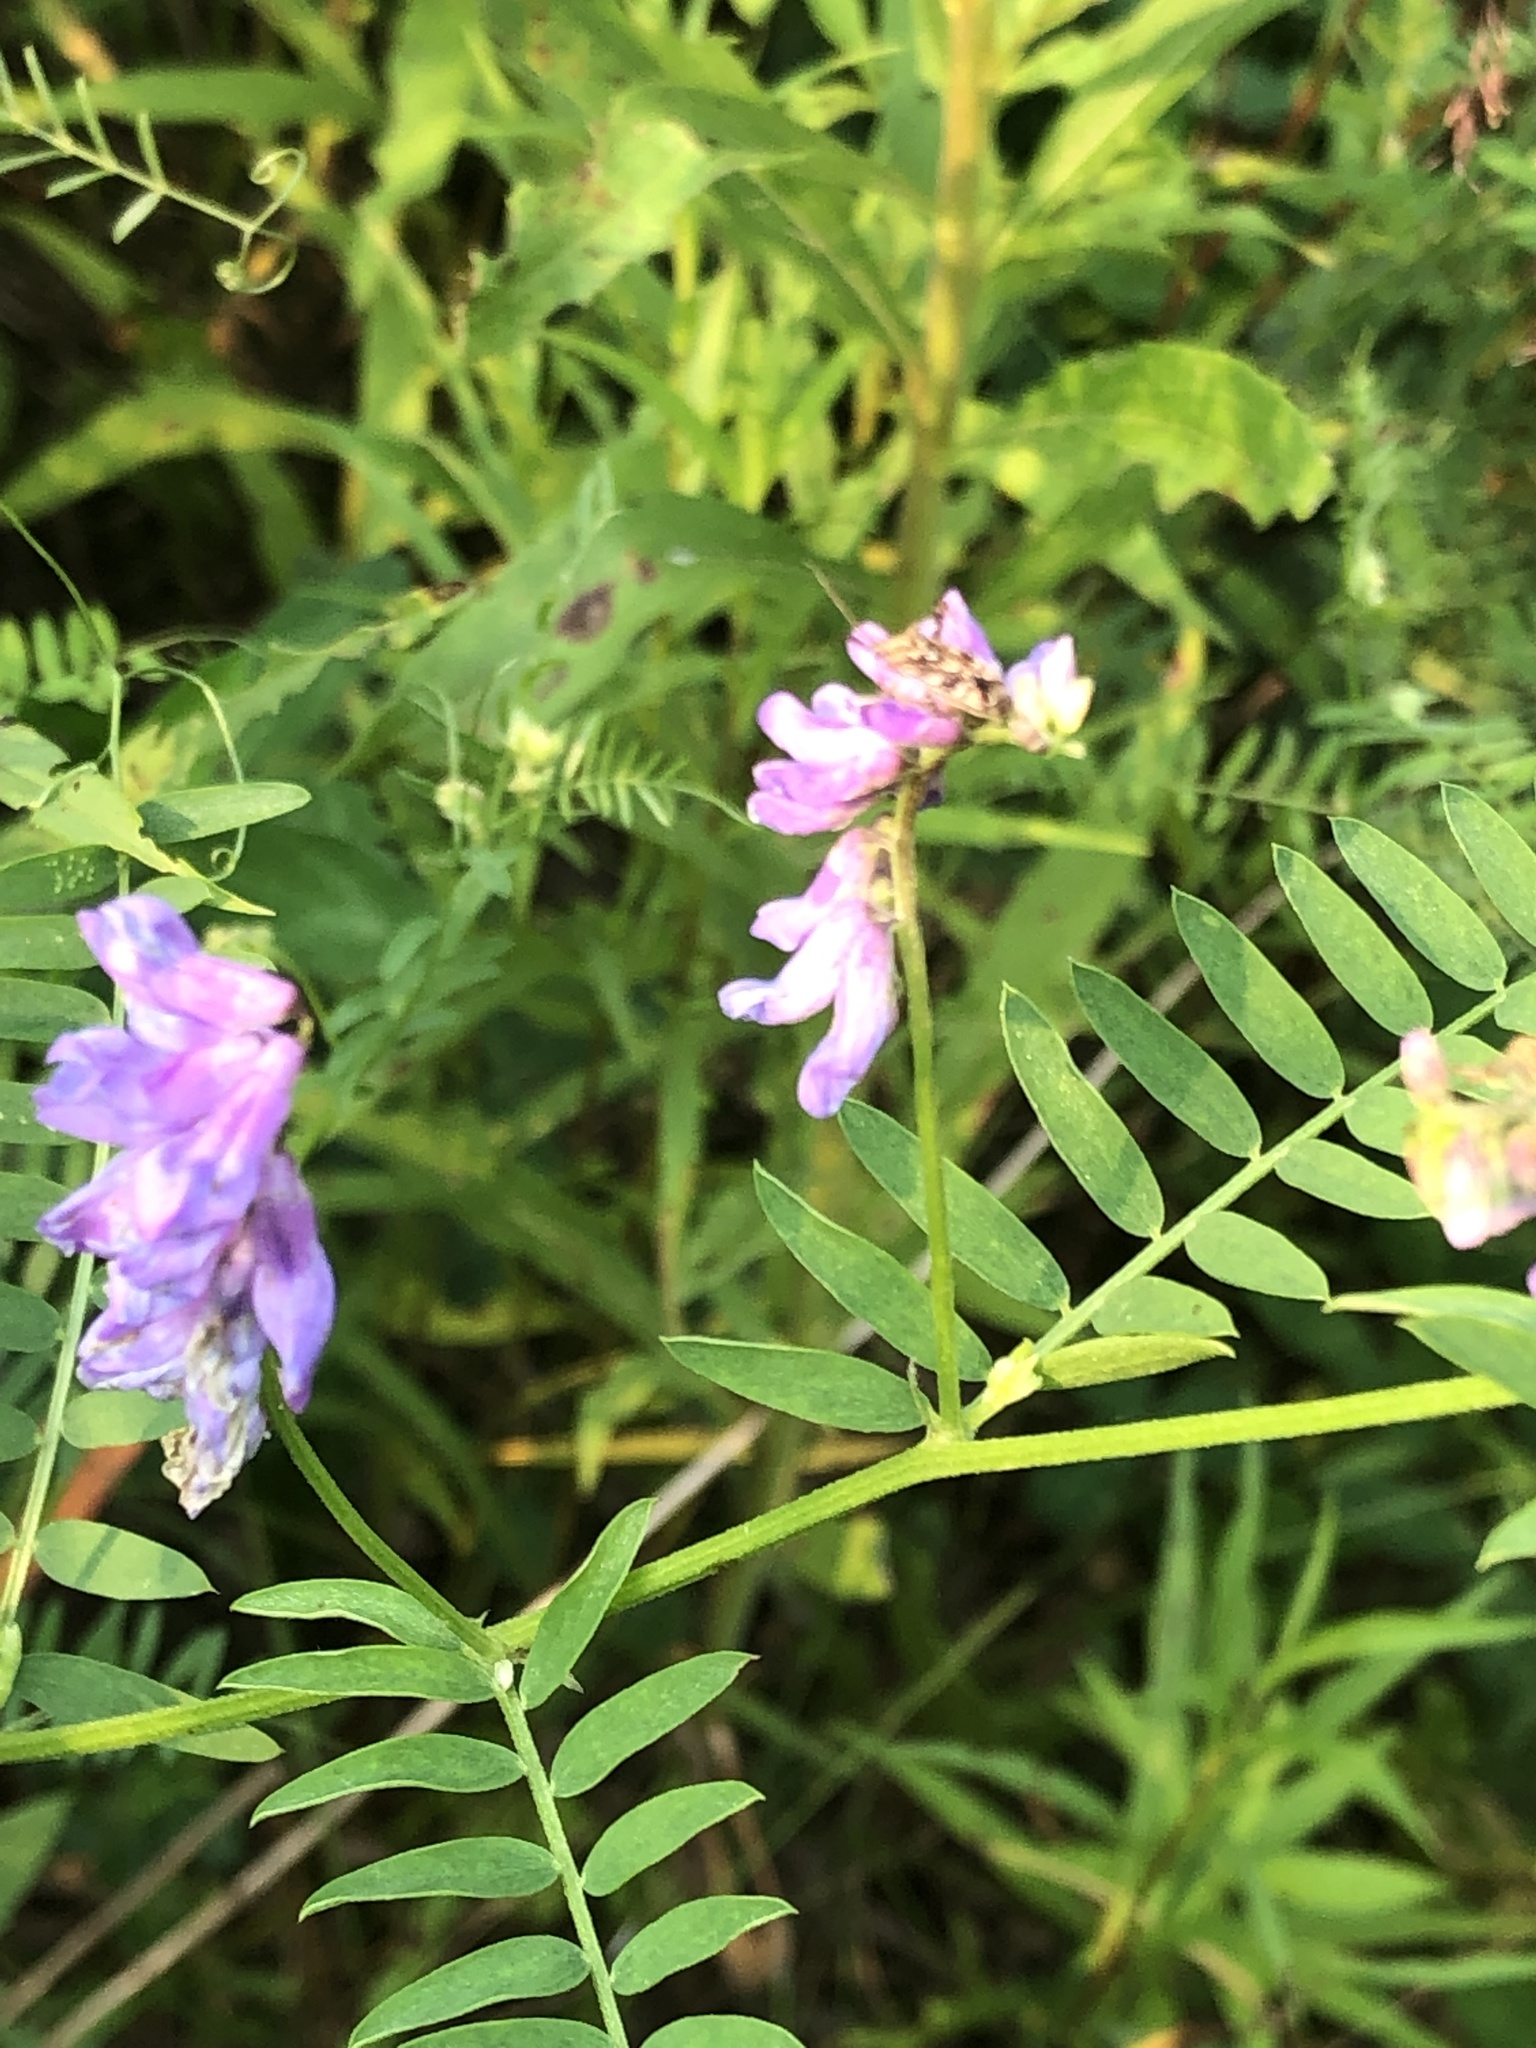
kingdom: Plantae
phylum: Tracheophyta
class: Magnoliopsida
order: Fabales
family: Fabaceae
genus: Vicia
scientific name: Vicia cracca
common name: Bird vetch
